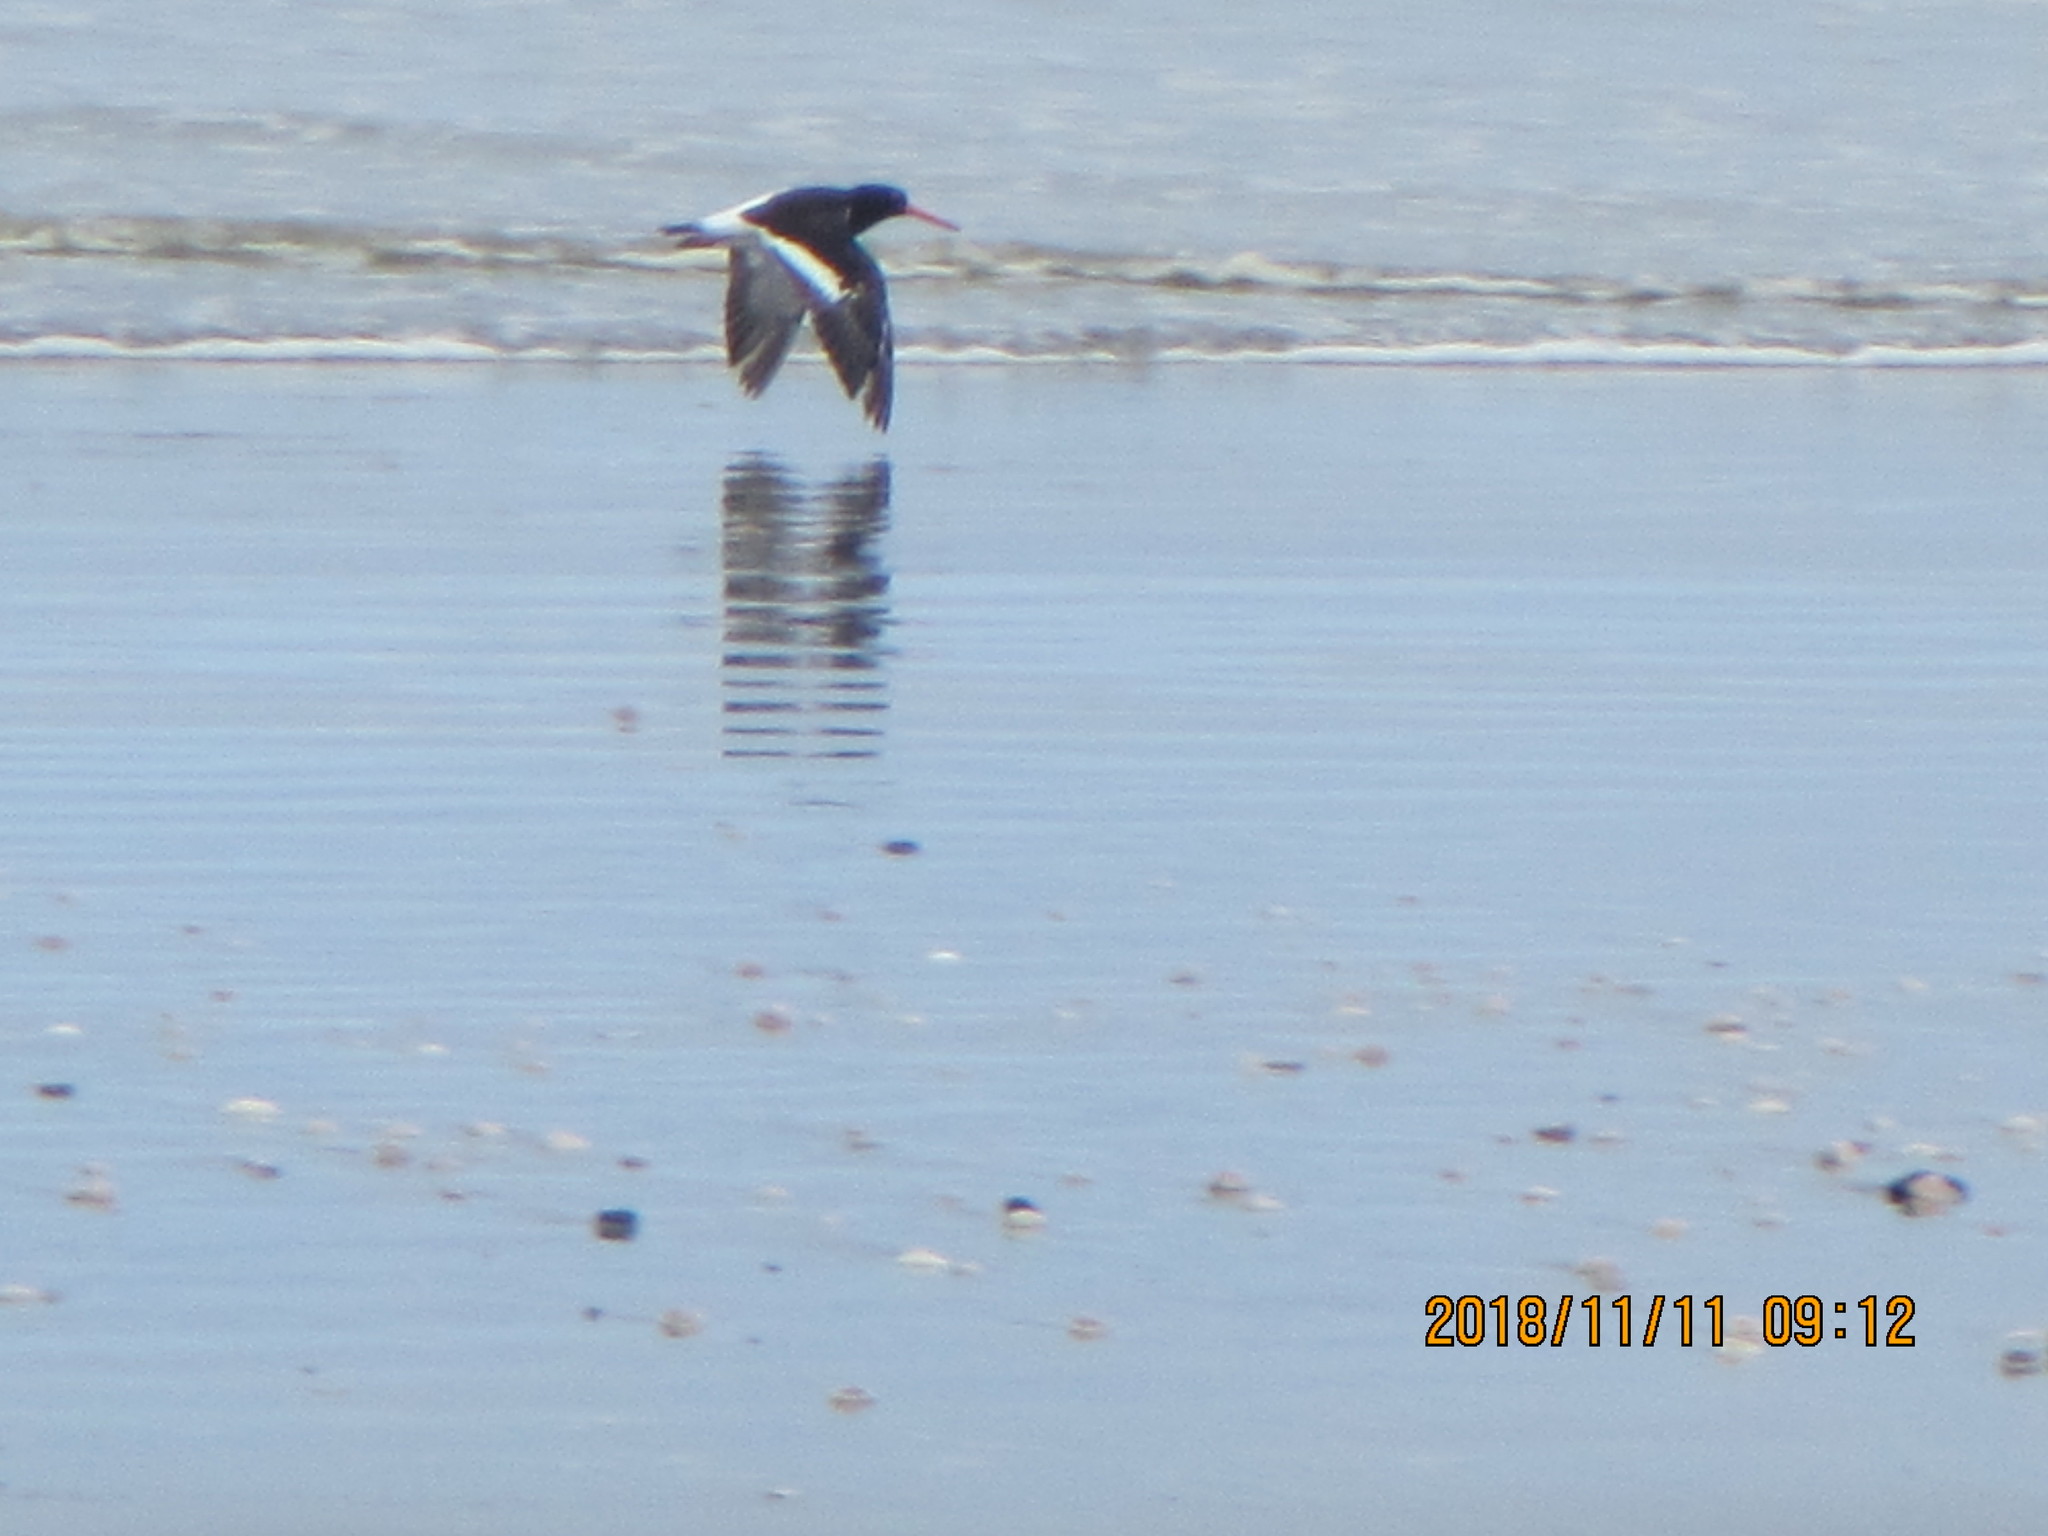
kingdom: Animalia
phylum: Chordata
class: Aves
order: Charadriiformes
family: Haematopodidae
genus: Haematopus
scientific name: Haematopus finschi
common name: South island oystercatcher
